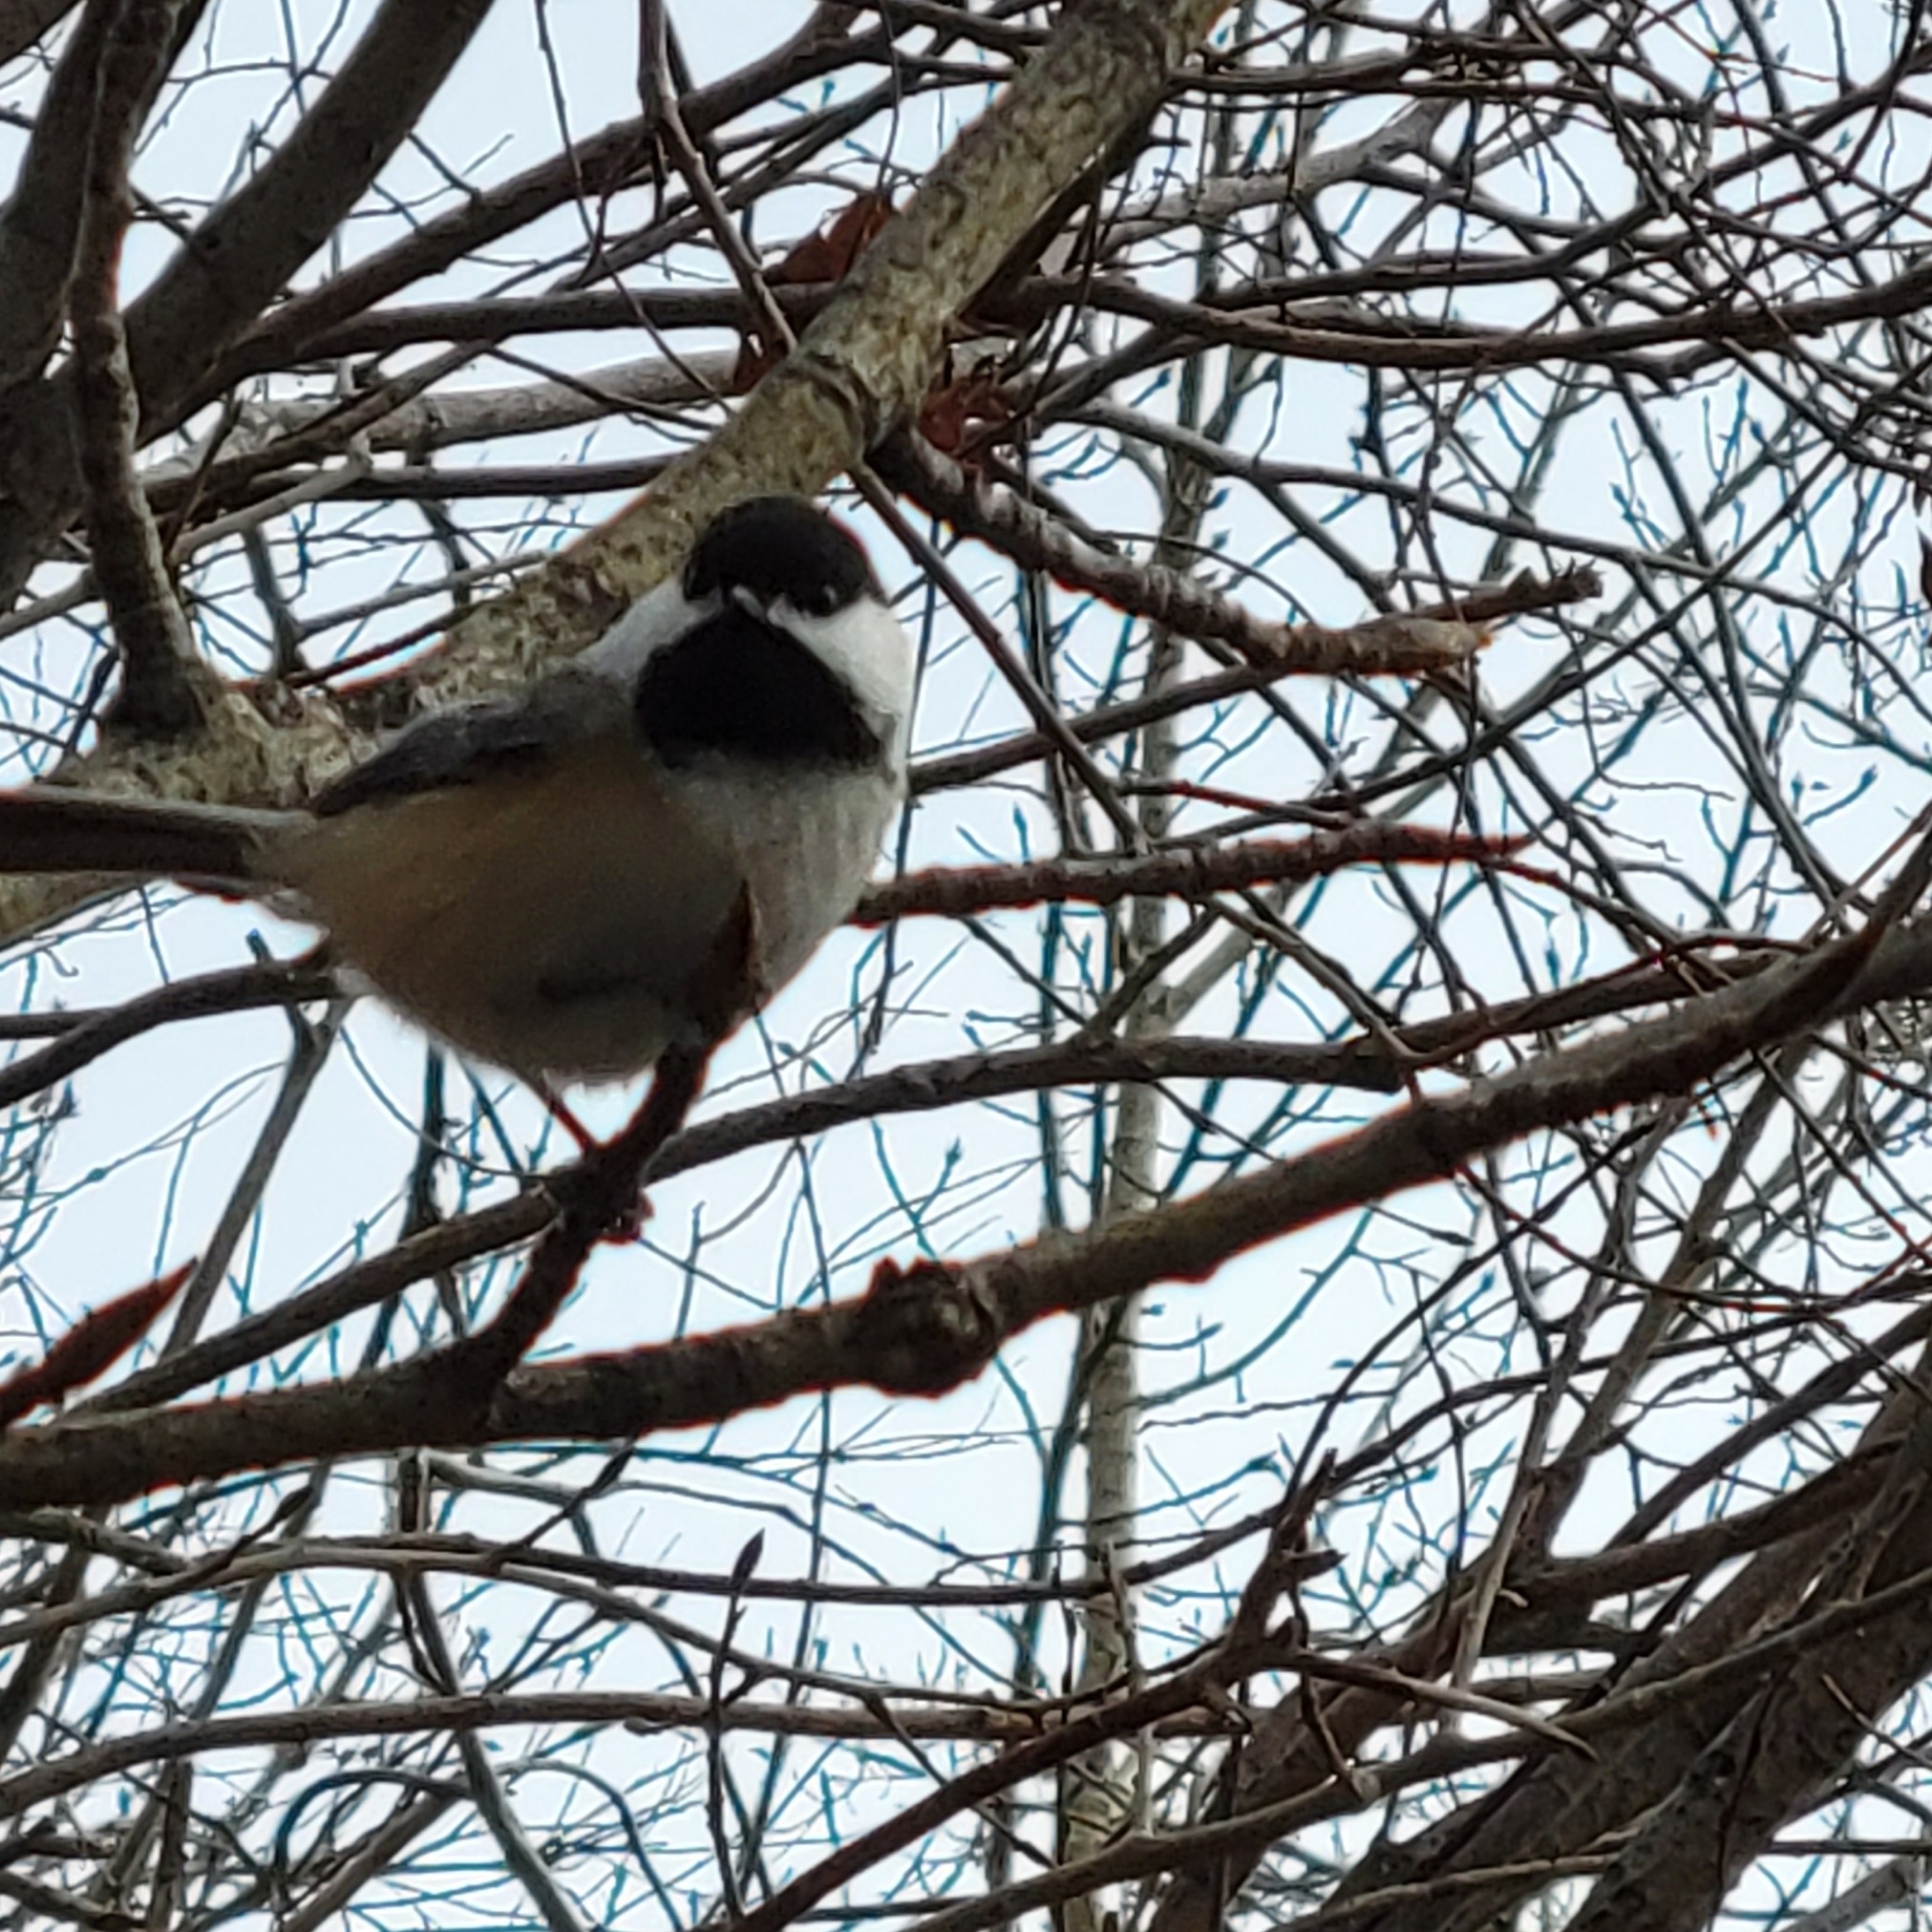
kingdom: Animalia
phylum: Chordata
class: Aves
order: Passeriformes
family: Paridae
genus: Poecile
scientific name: Poecile atricapillus
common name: Black-capped chickadee
